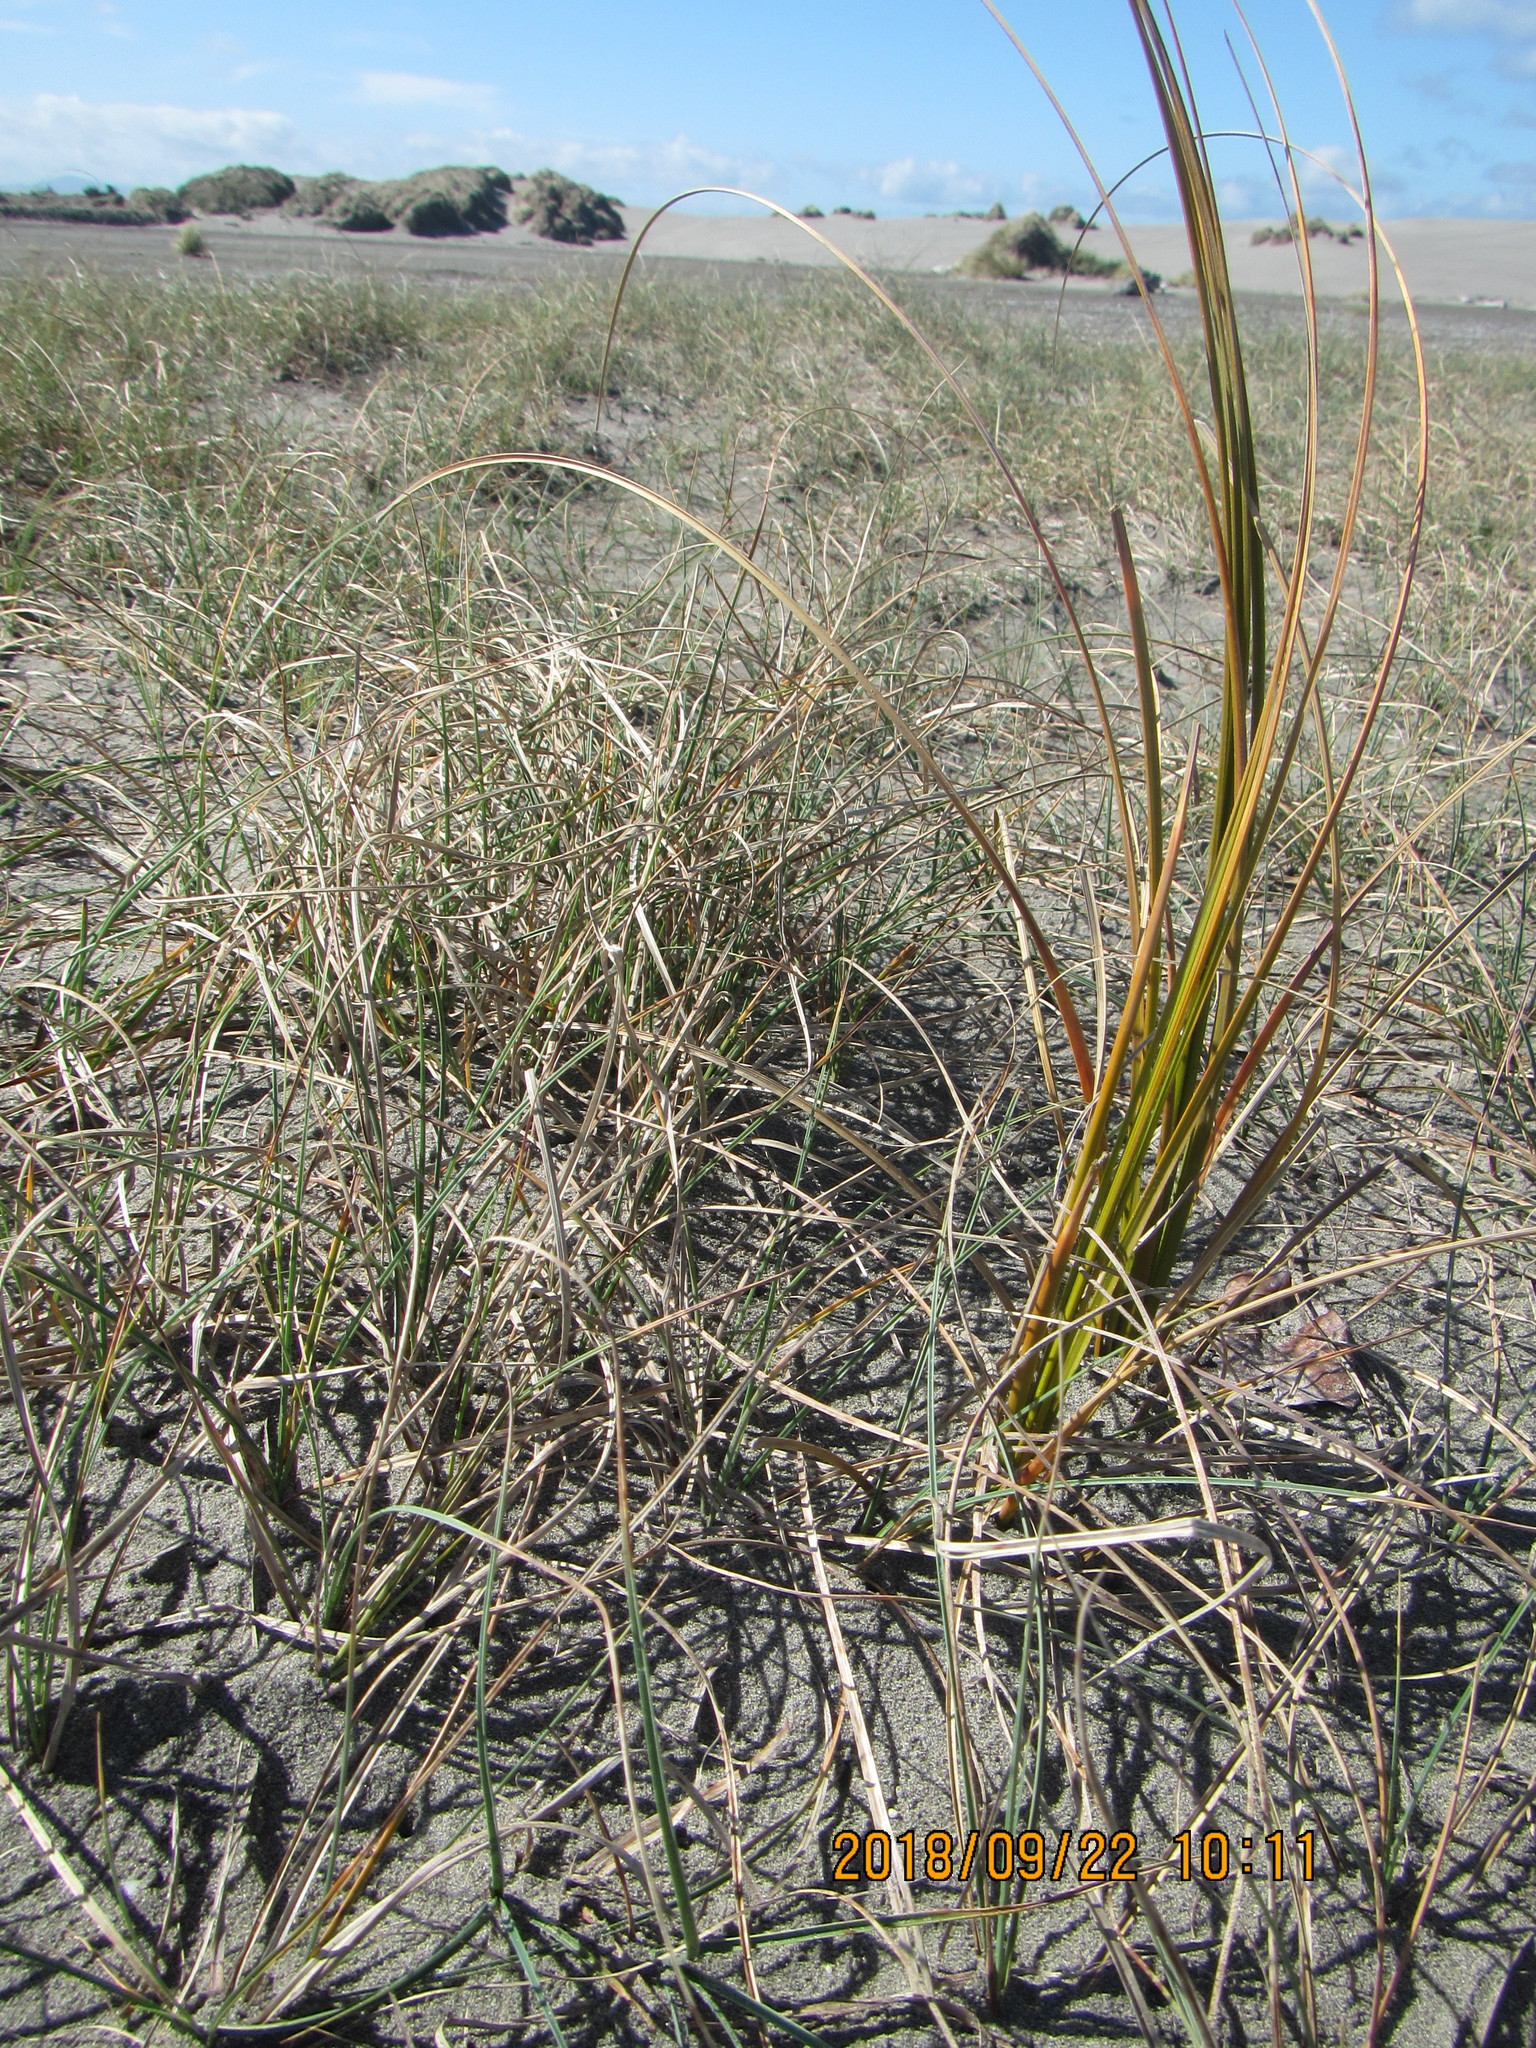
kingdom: Plantae
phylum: Tracheophyta
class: Liliopsida
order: Poales
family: Cyperaceae
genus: Carex
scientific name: Carex pumila
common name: Dwarf sedge
